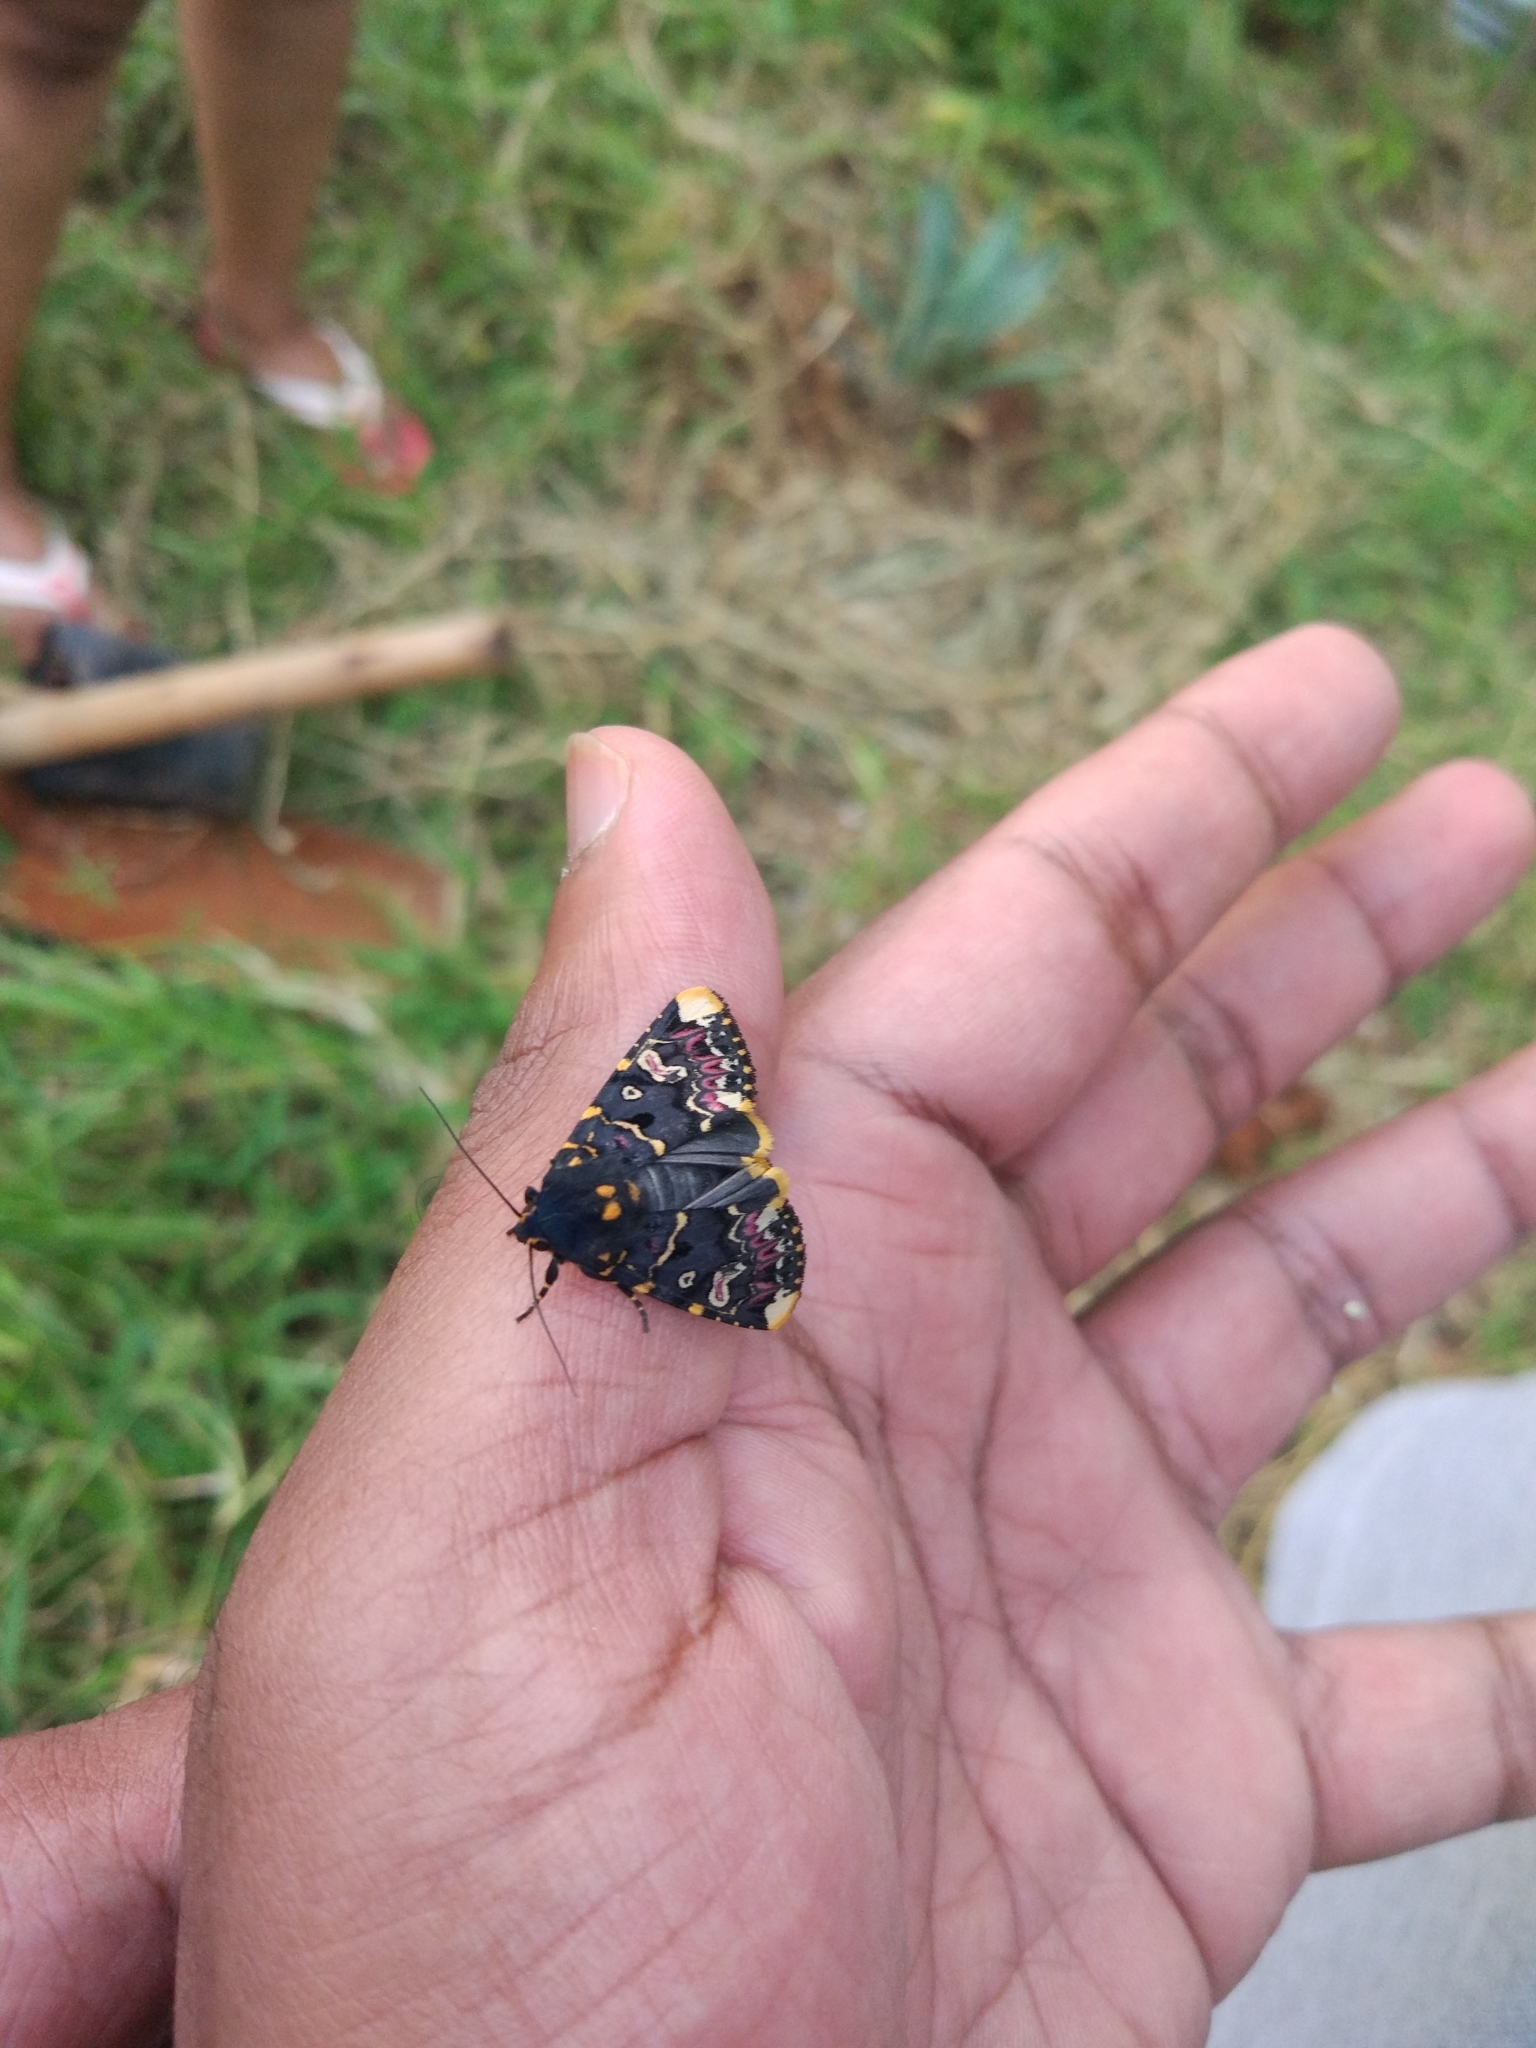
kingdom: Animalia
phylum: Arthropoda
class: Insecta
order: Lepidoptera
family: Noctuidae
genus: Polytela
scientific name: Polytela gloriosae
